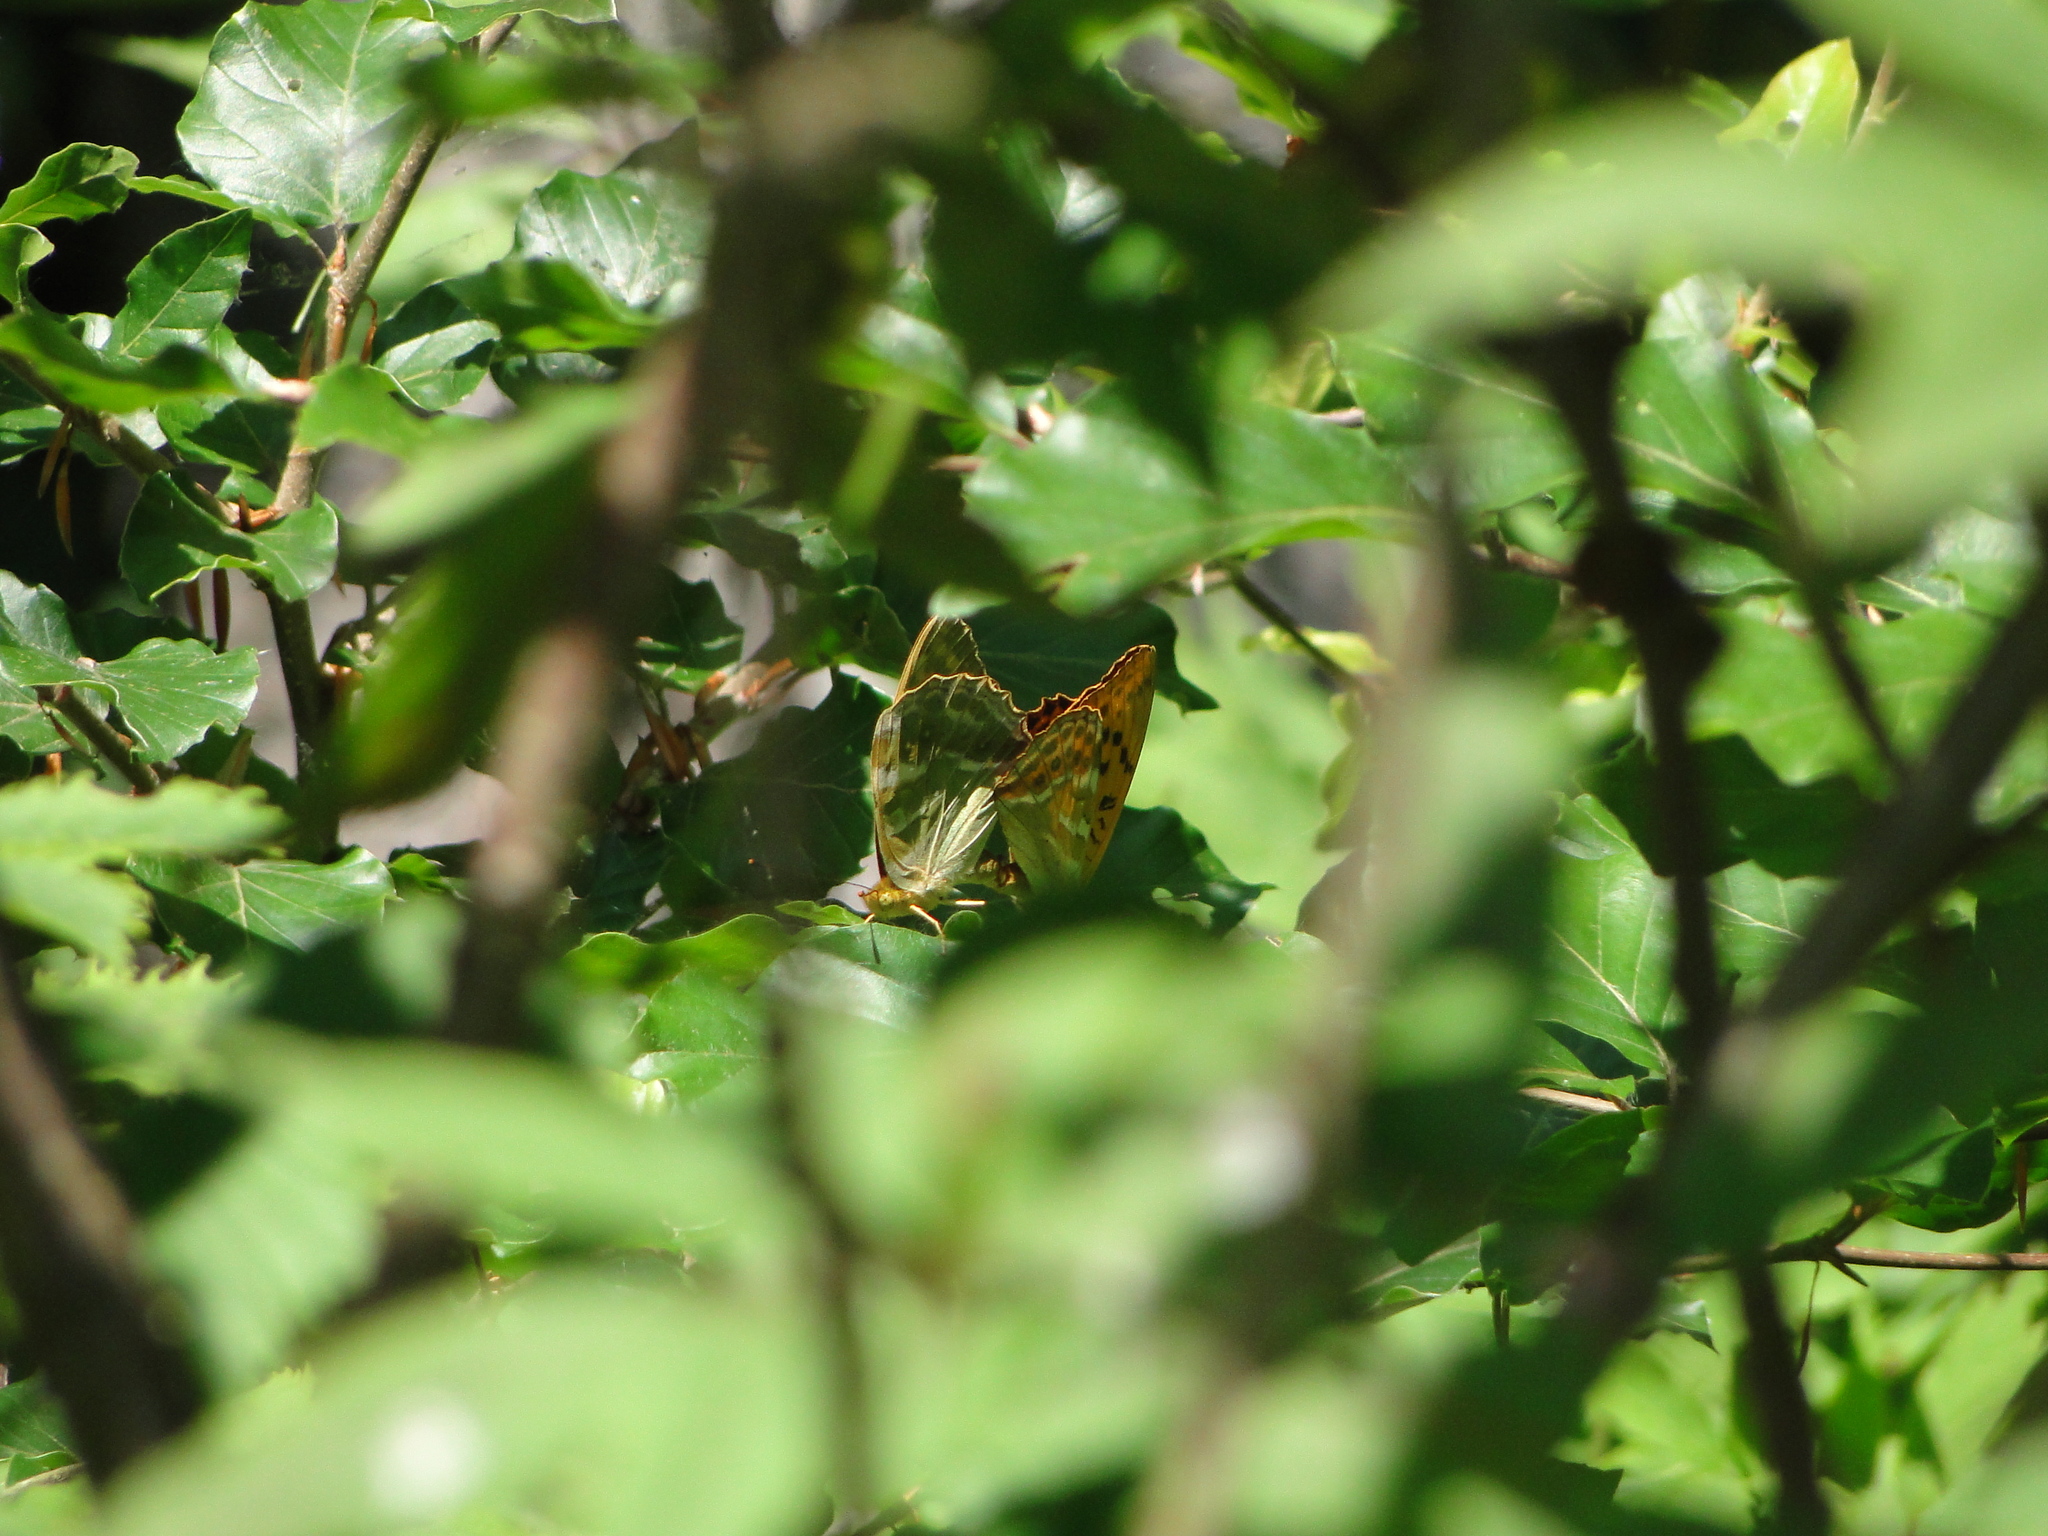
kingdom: Animalia
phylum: Arthropoda
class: Insecta
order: Lepidoptera
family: Nymphalidae
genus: Argynnis
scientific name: Argynnis paphia
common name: Silver-washed fritillary
